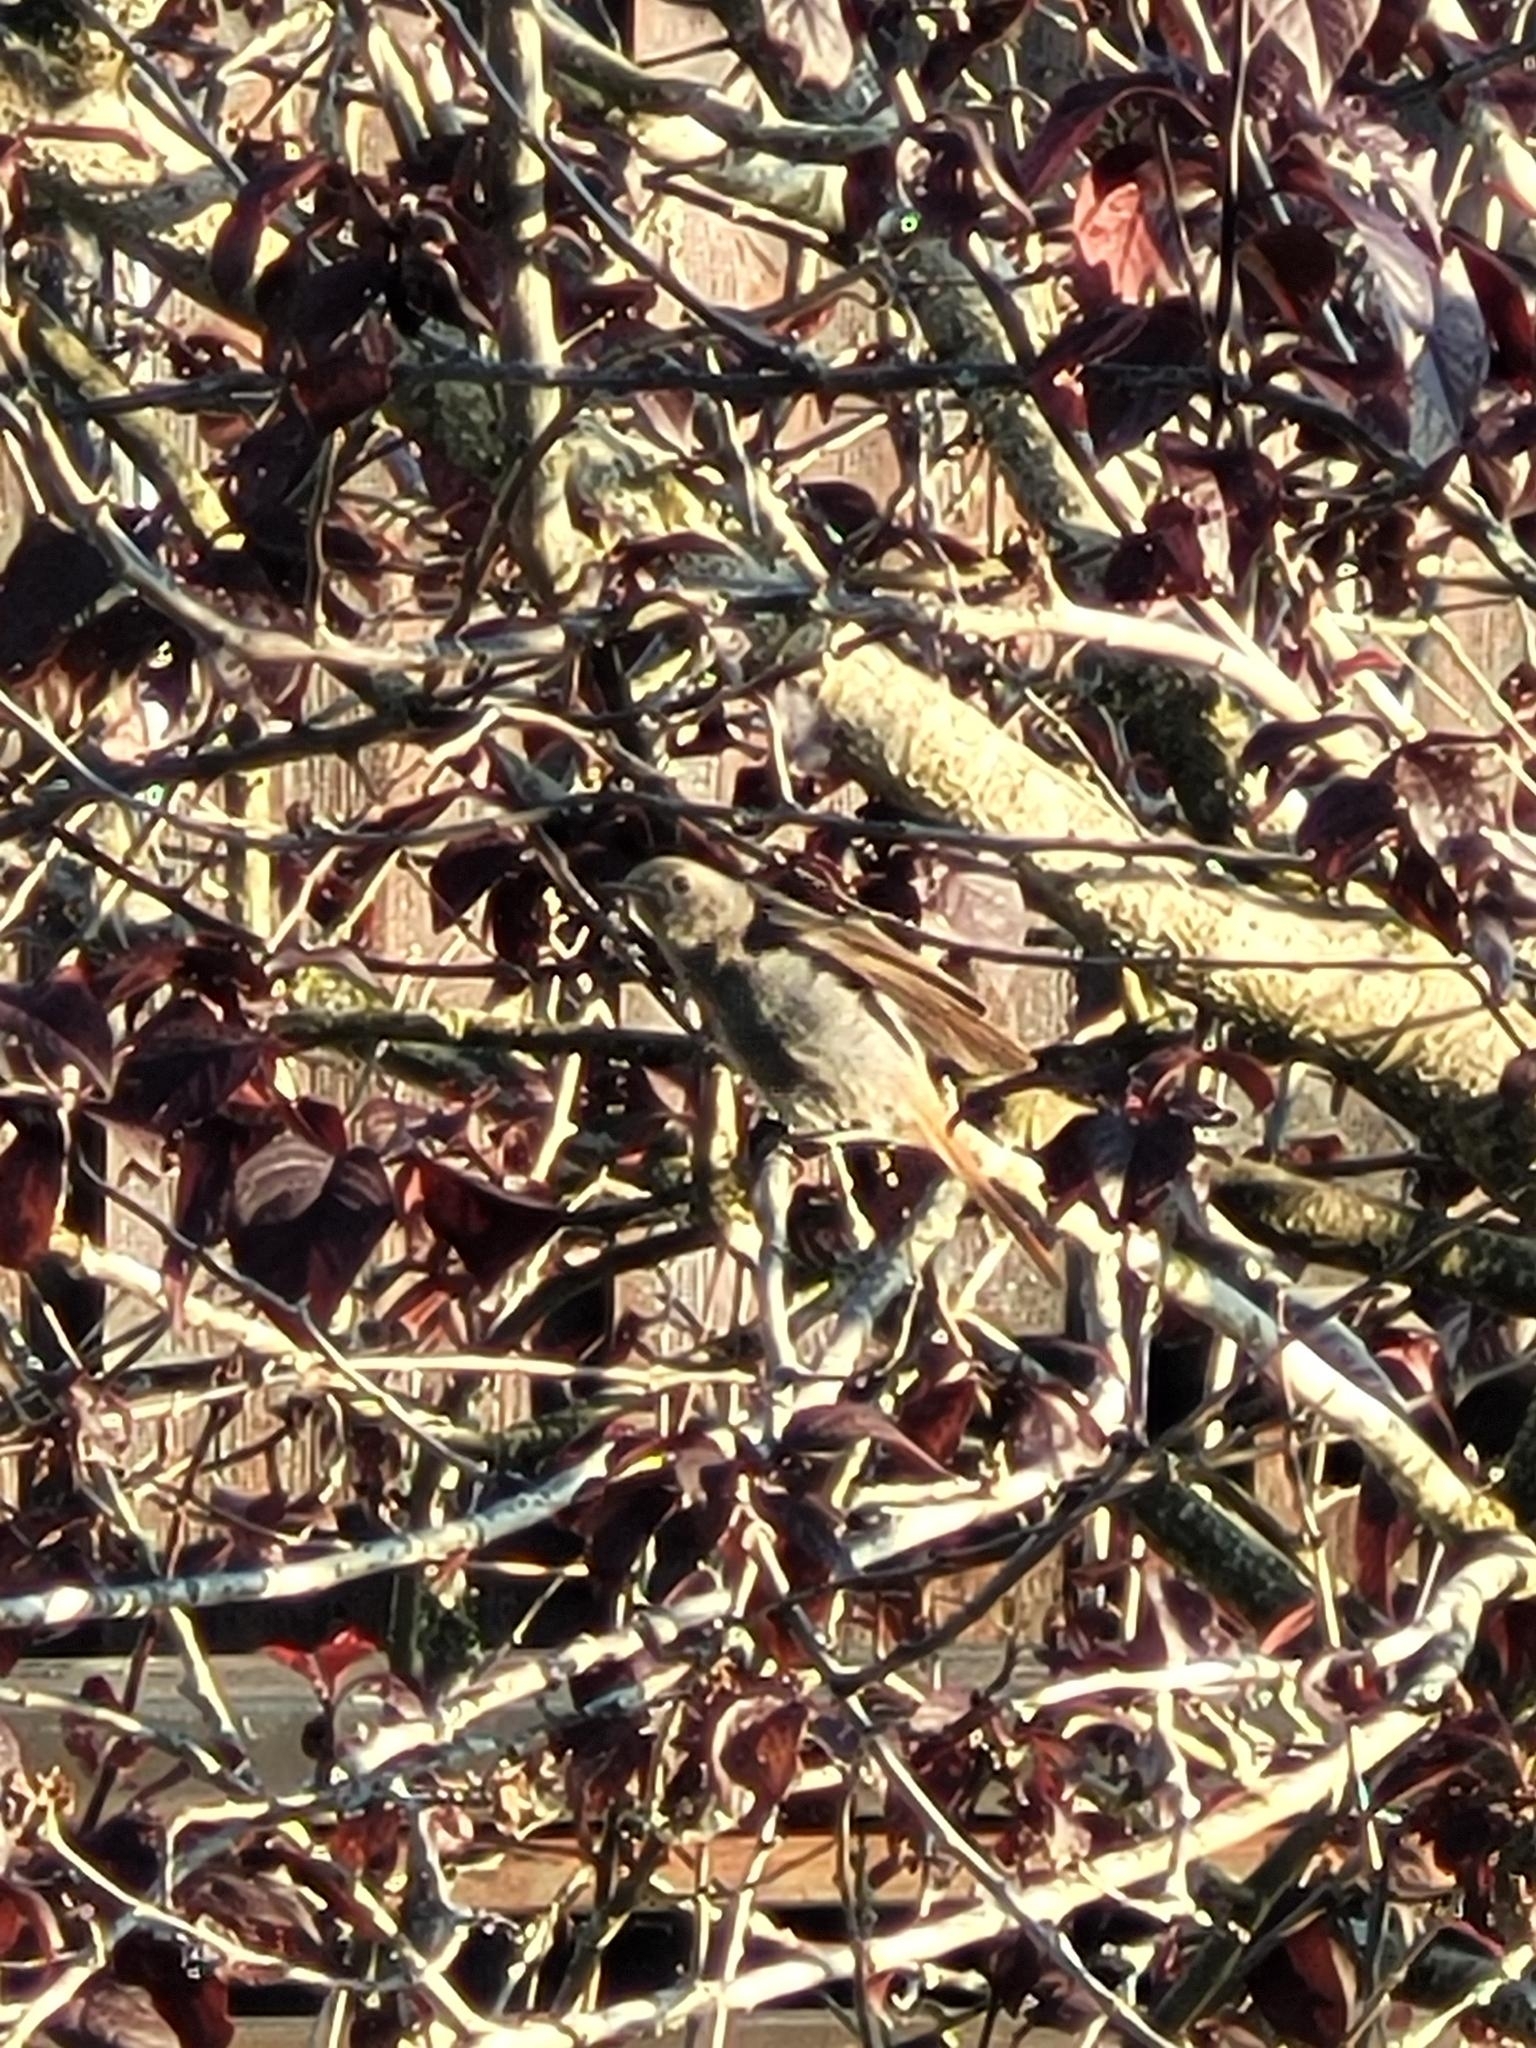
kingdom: Animalia
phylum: Chordata
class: Aves
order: Passeriformes
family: Muscicapidae
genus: Phoenicurus
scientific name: Phoenicurus ochruros
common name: Black redstart
